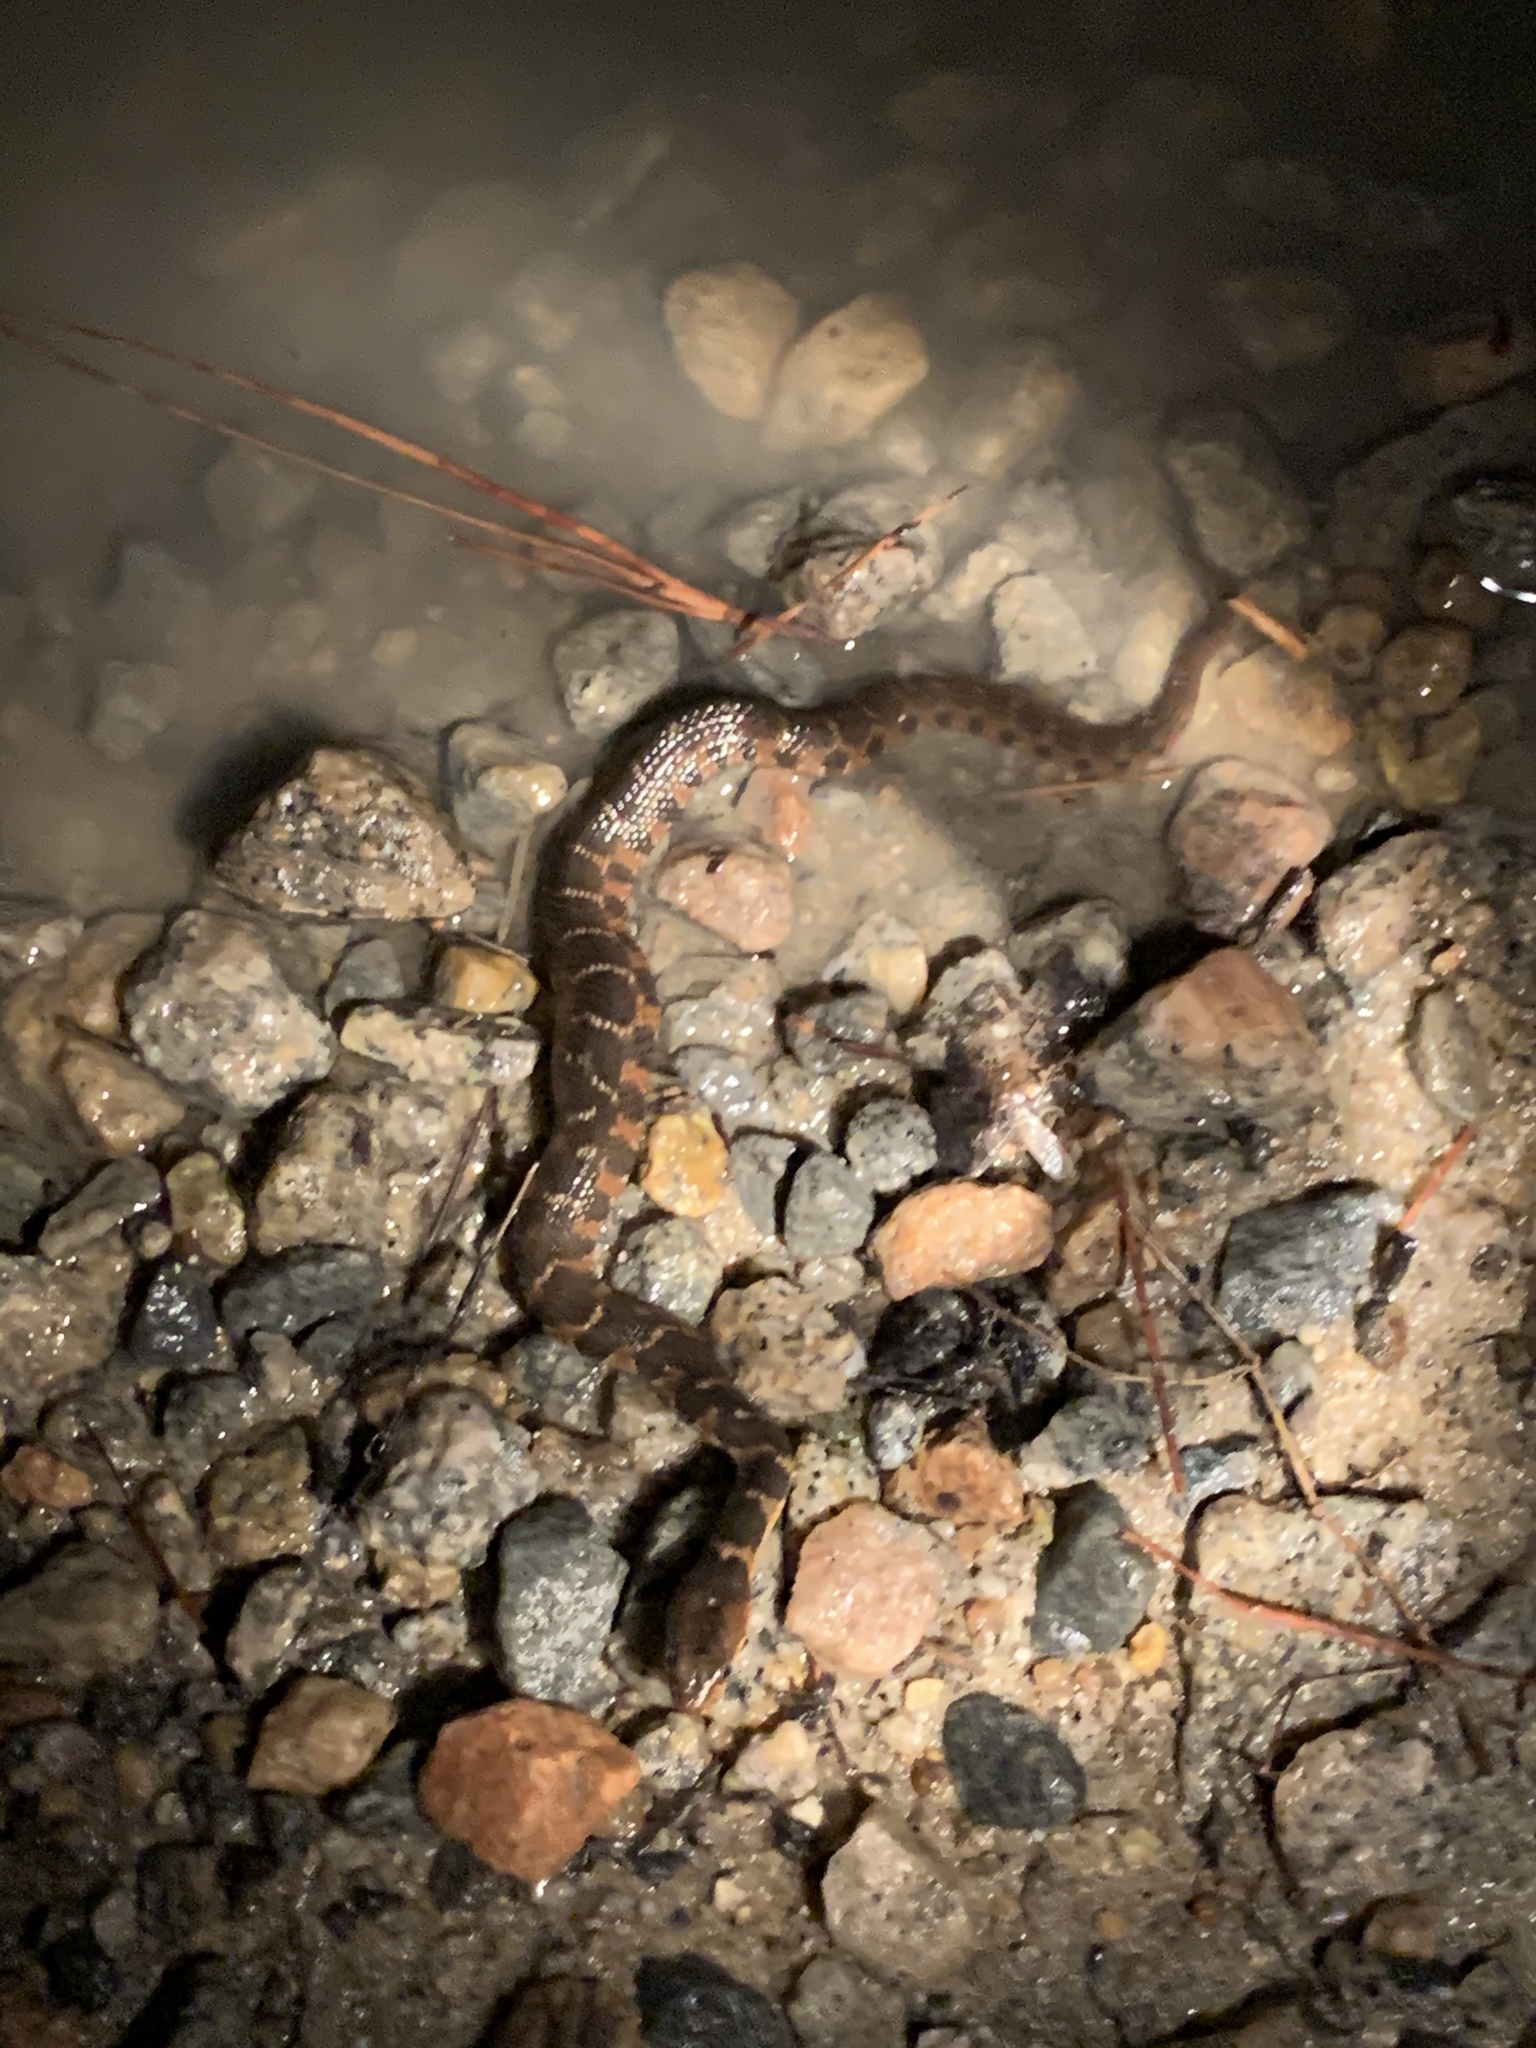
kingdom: Animalia
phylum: Chordata
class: Squamata
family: Colubridae
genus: Nerodia
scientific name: Nerodia erythrogaster
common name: Plainbelly water snake
